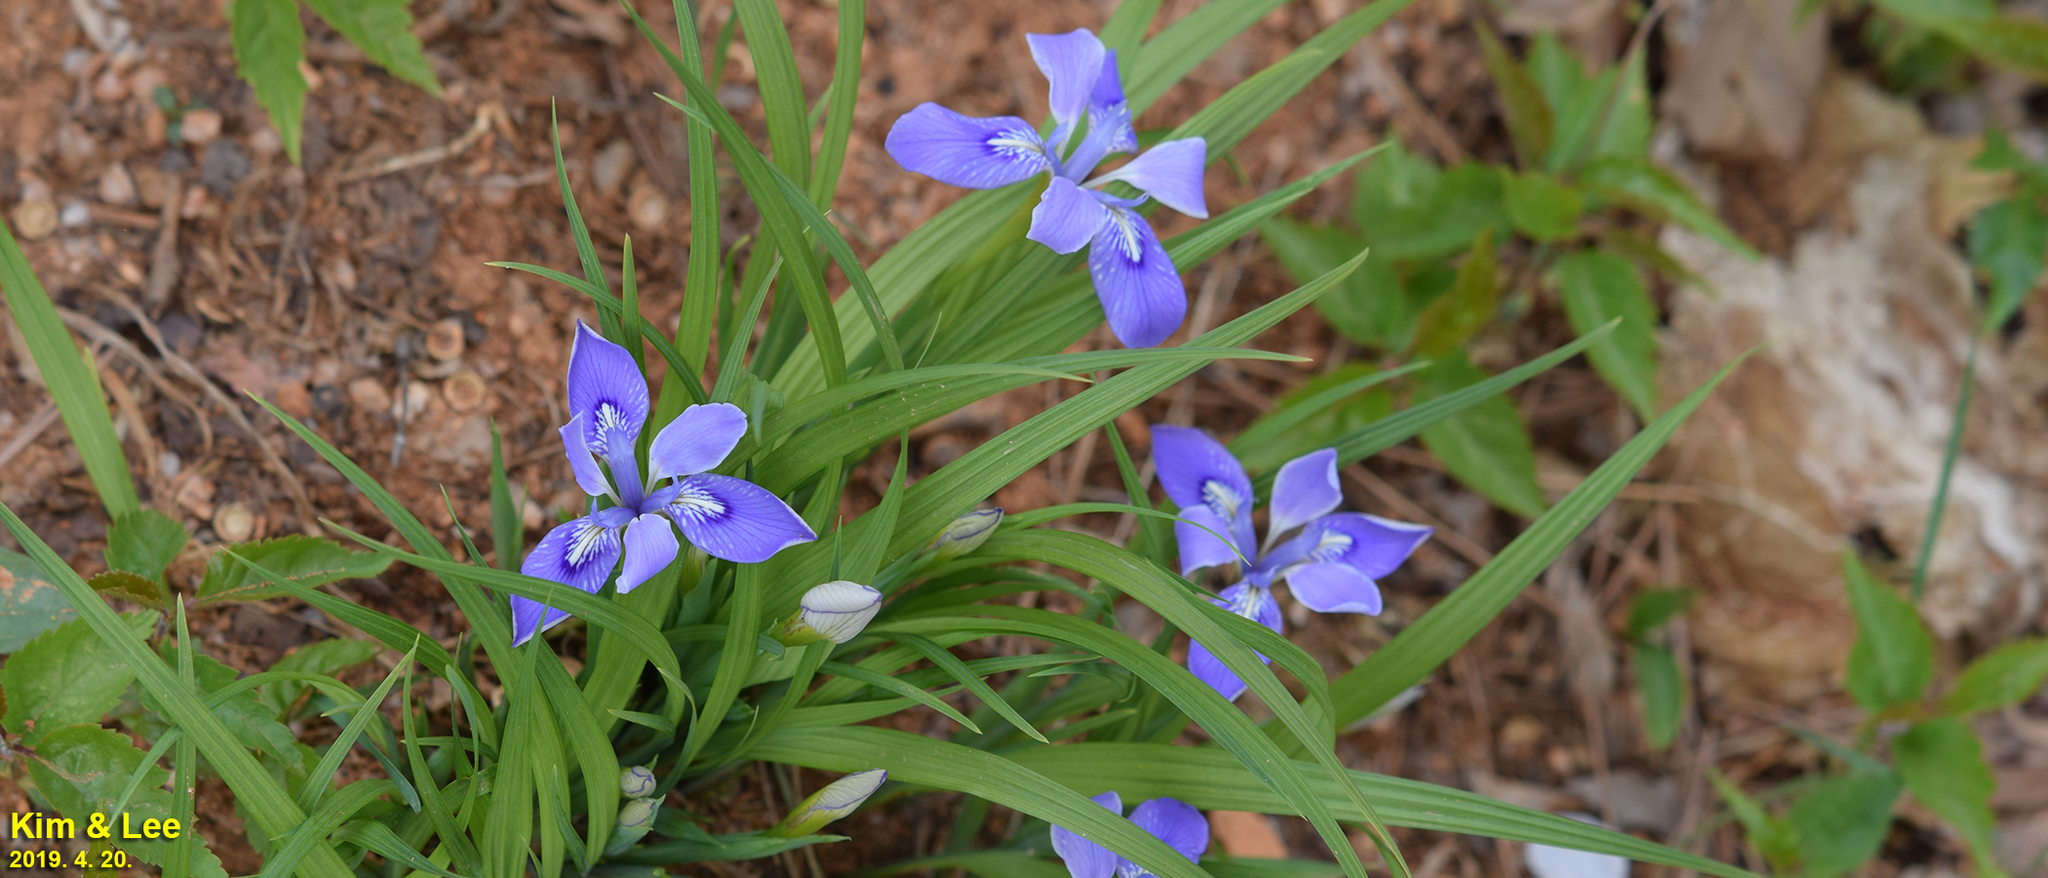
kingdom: Plantae
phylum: Tracheophyta
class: Liliopsida
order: Asparagales
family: Iridaceae
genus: Iris
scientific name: Iris rossii
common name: Long-tail iris
